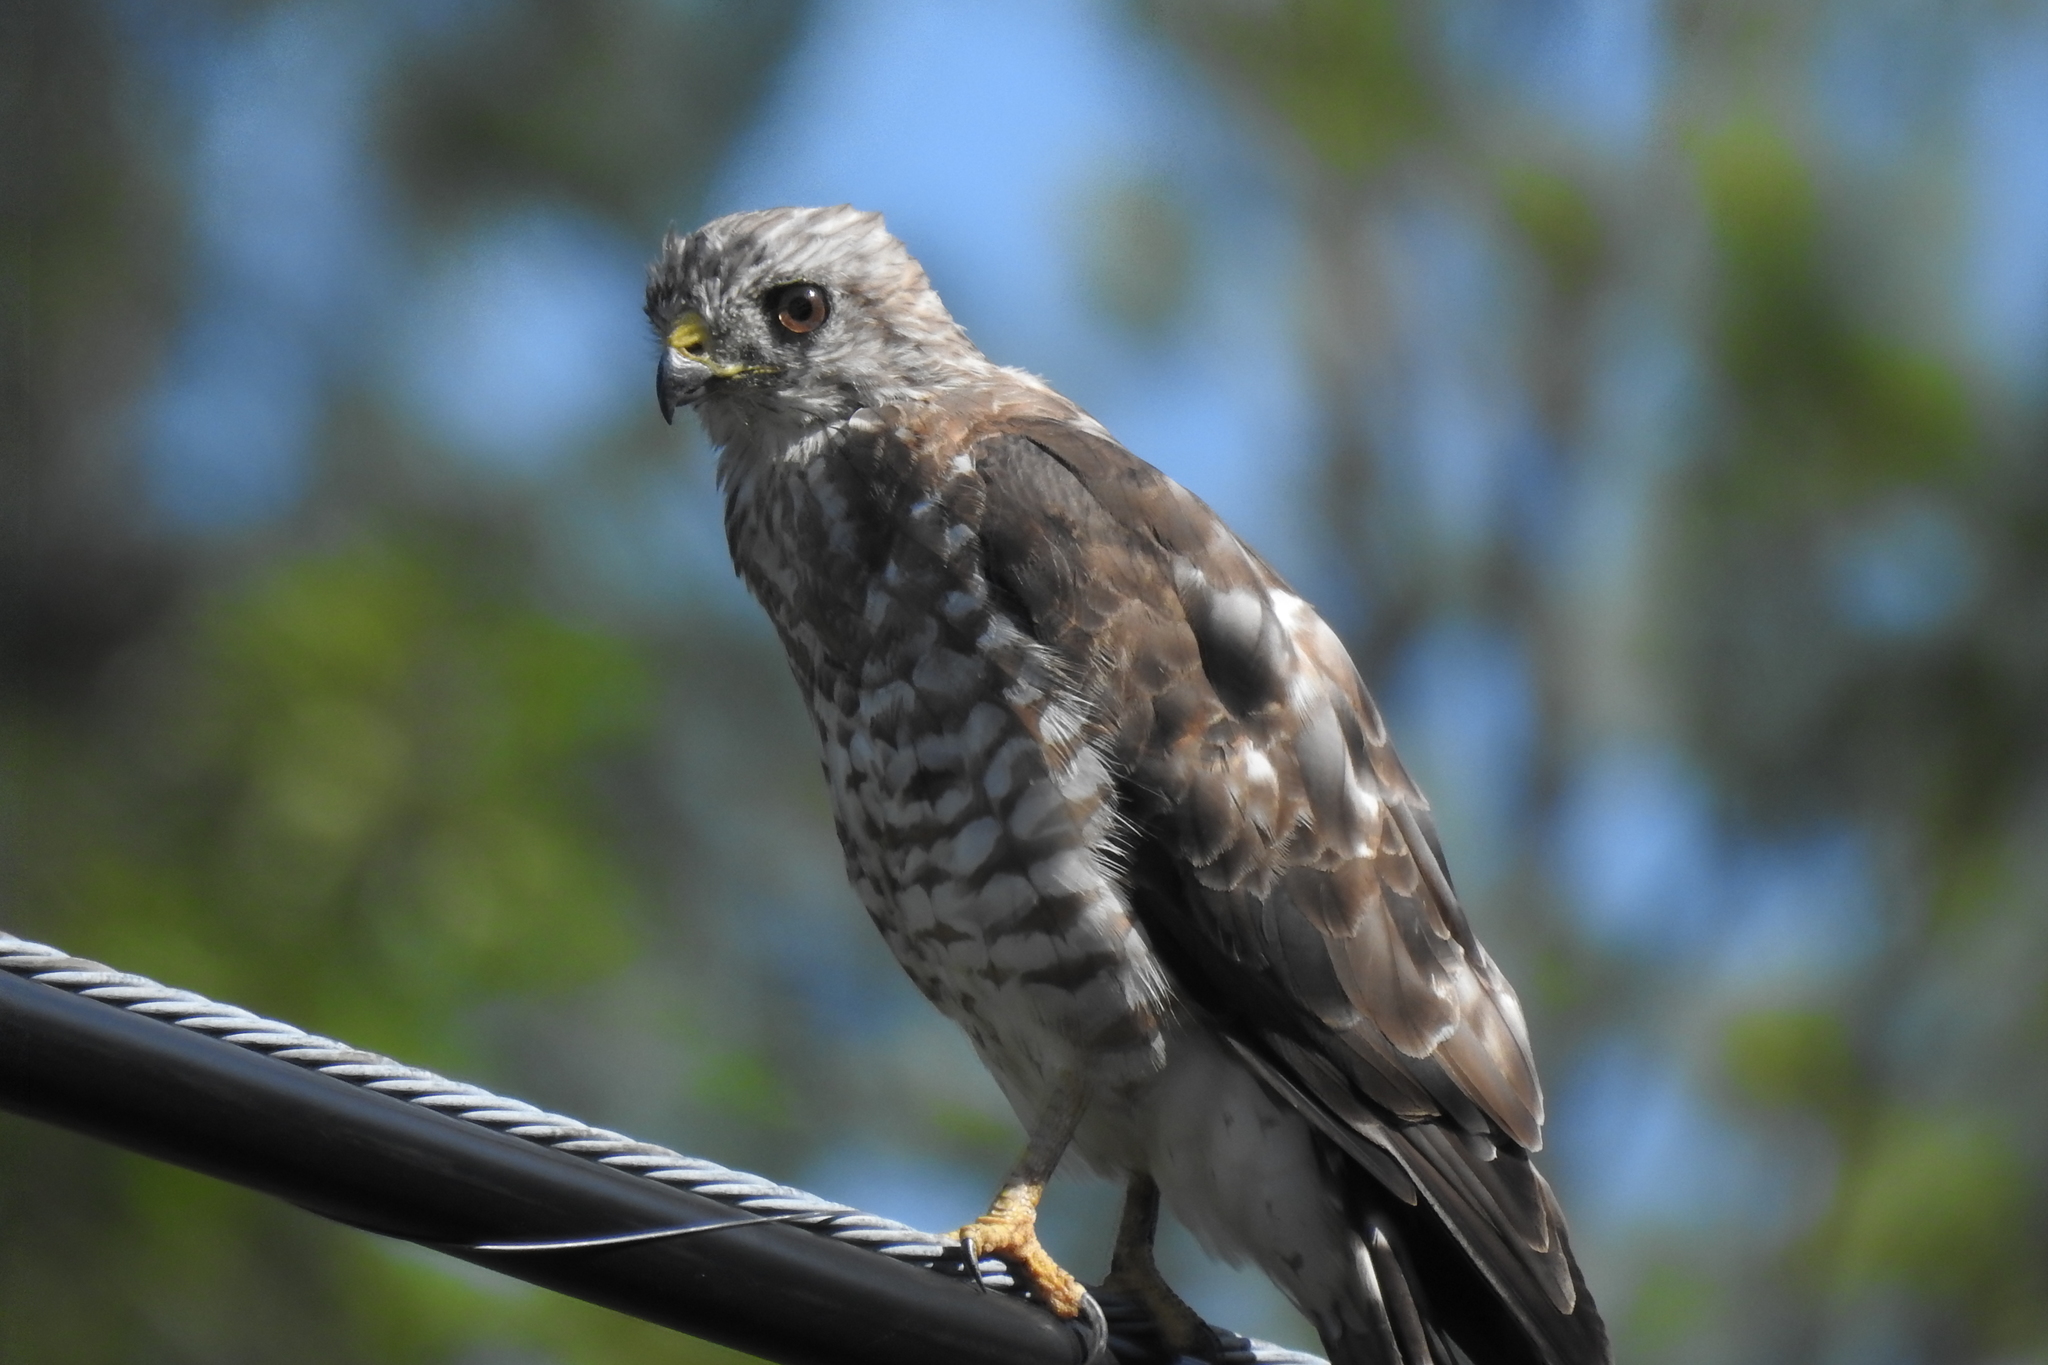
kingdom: Animalia
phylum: Chordata
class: Aves
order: Accipitriformes
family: Accipitridae
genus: Buteo
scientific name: Buteo platypterus
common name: Broad-winged hawk
